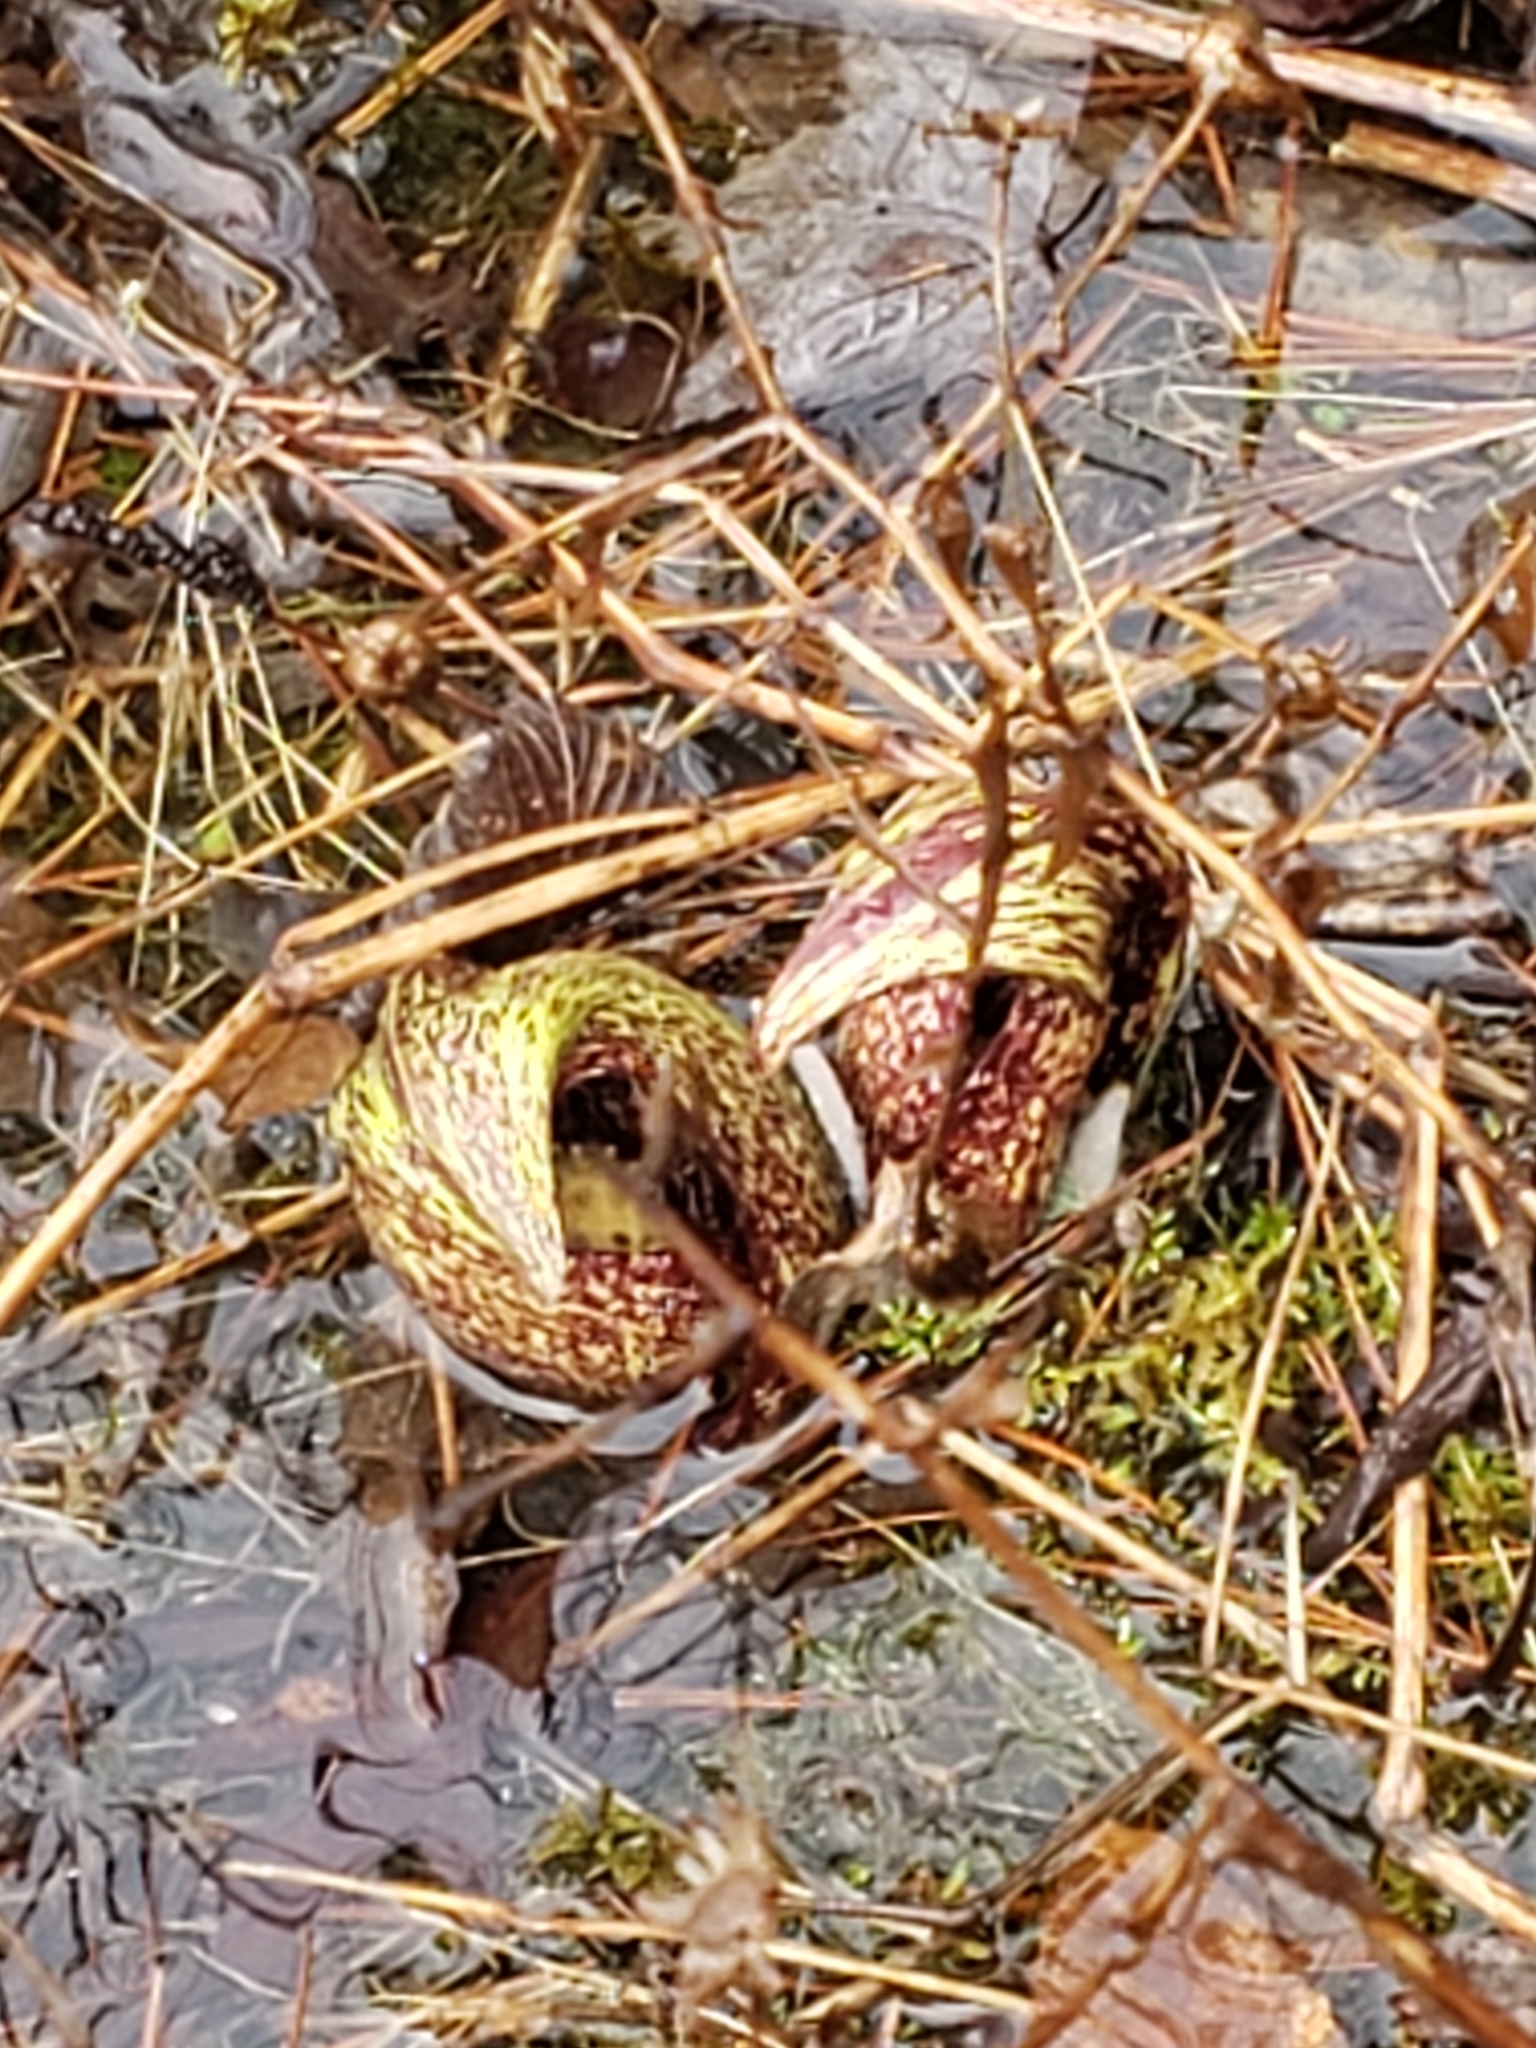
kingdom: Plantae
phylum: Tracheophyta
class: Liliopsida
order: Alismatales
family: Araceae
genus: Symplocarpus
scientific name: Symplocarpus foetidus
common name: Eastern skunk cabbage
